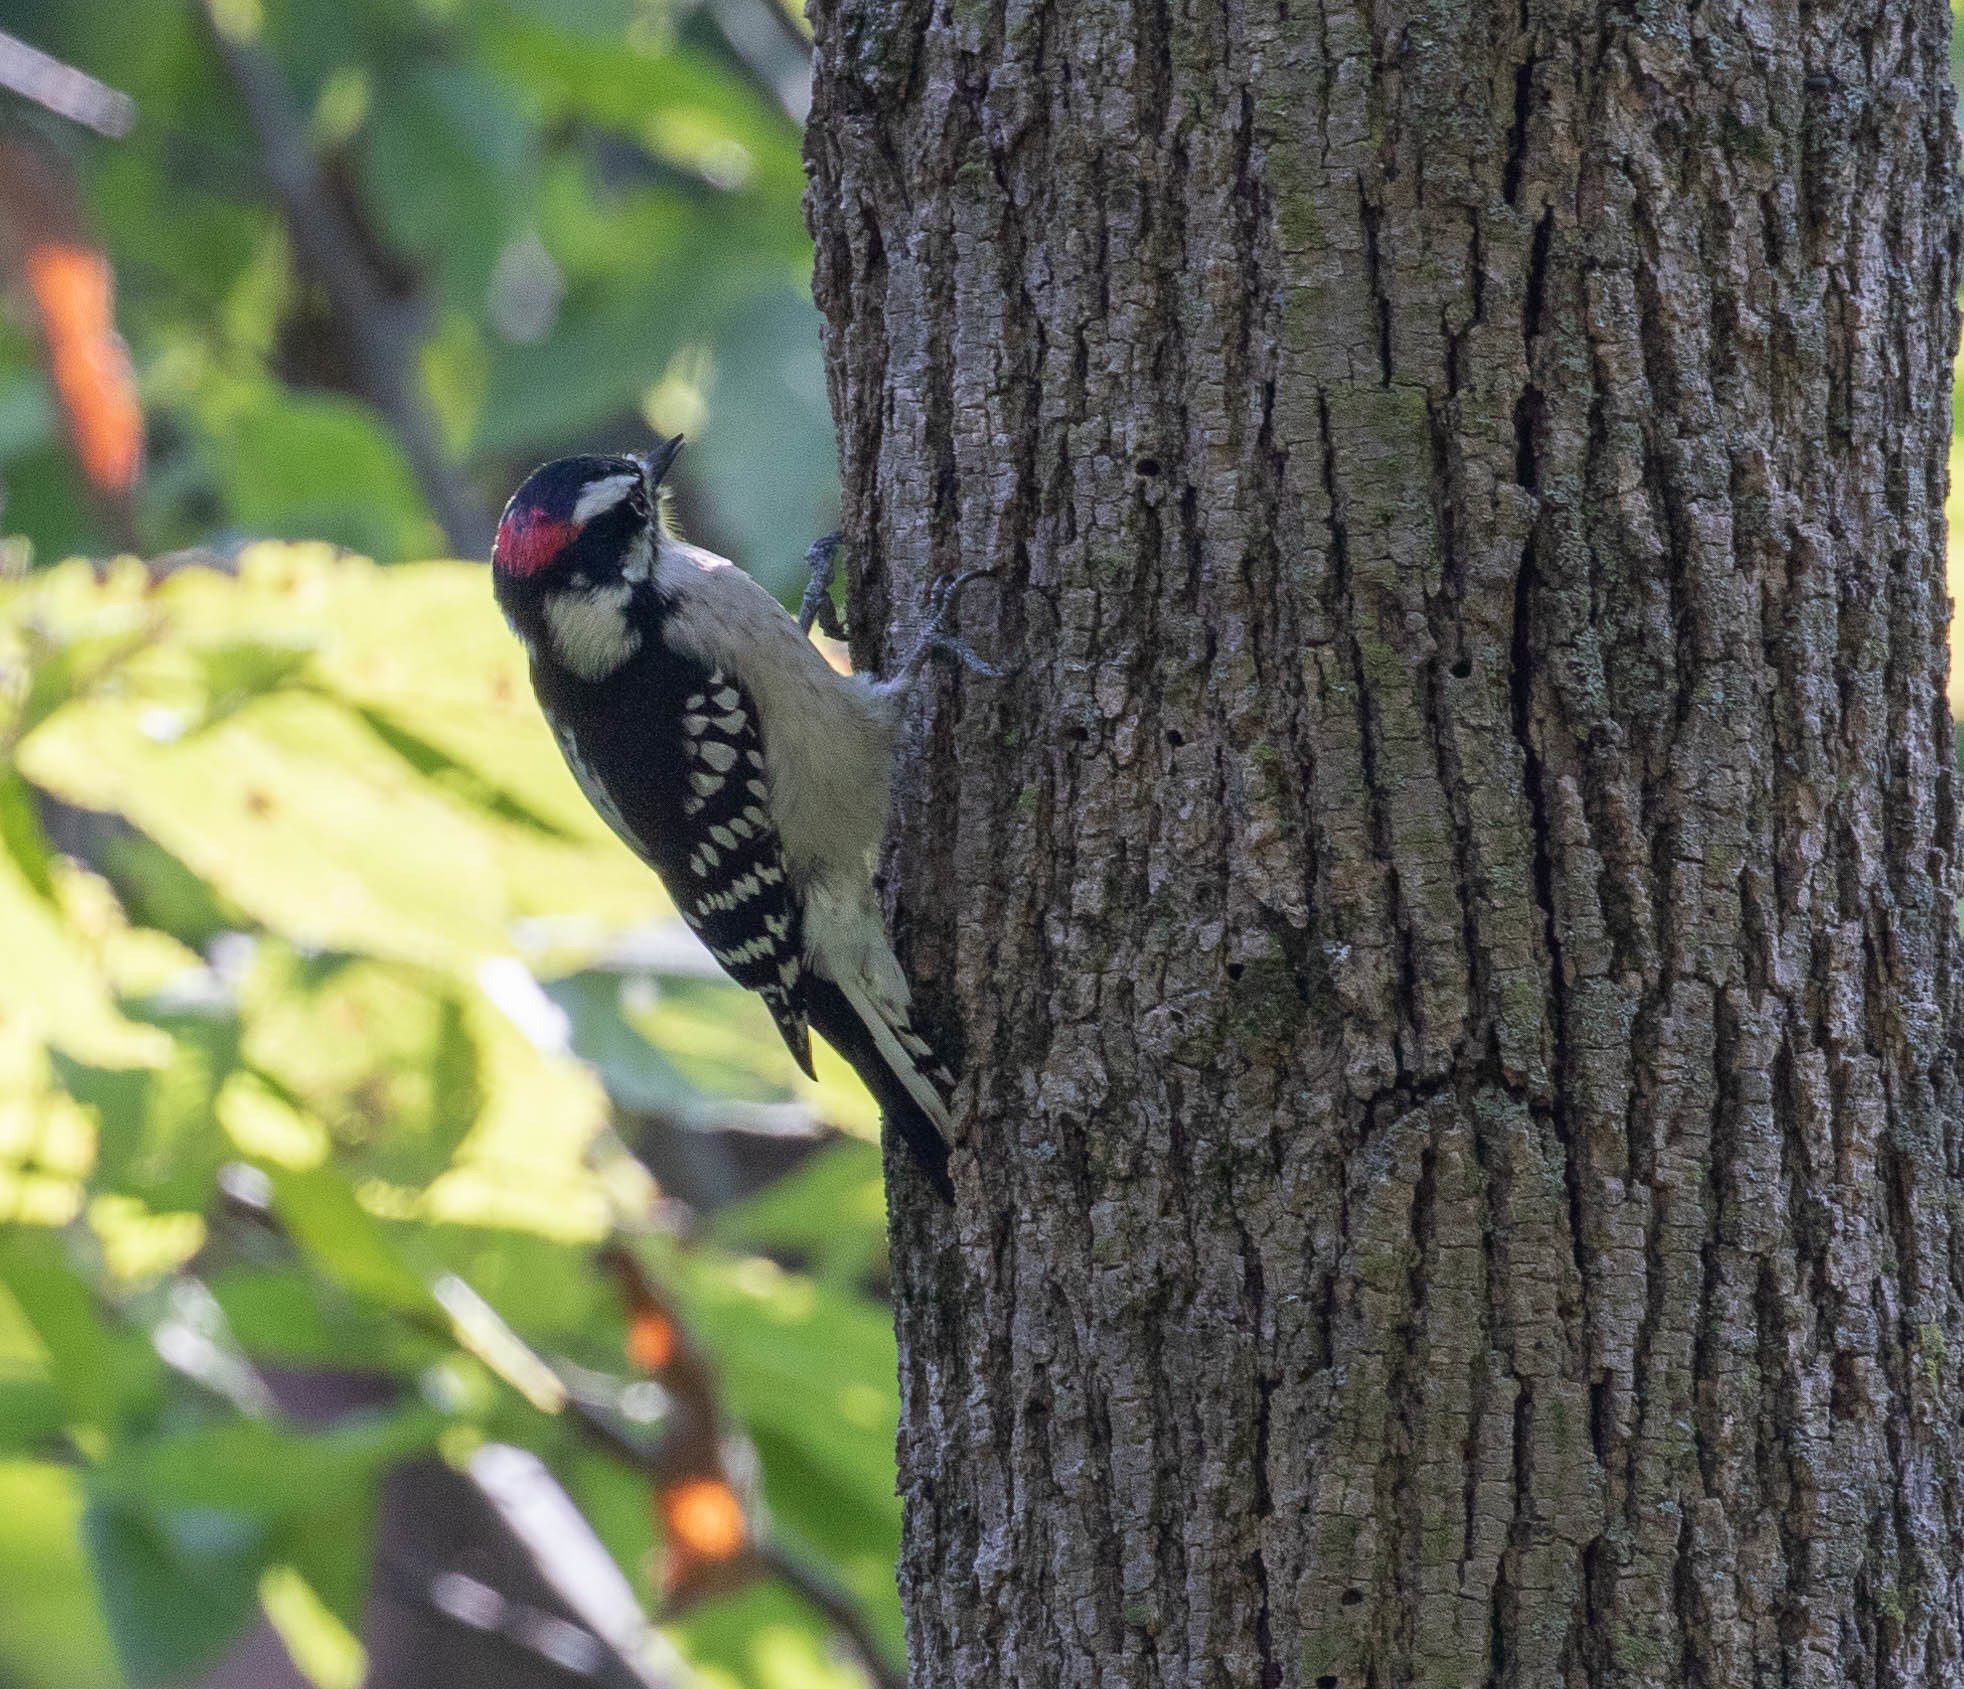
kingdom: Animalia
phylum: Chordata
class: Aves
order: Piciformes
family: Picidae
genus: Dryobates
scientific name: Dryobates pubescens
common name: Downy woodpecker
